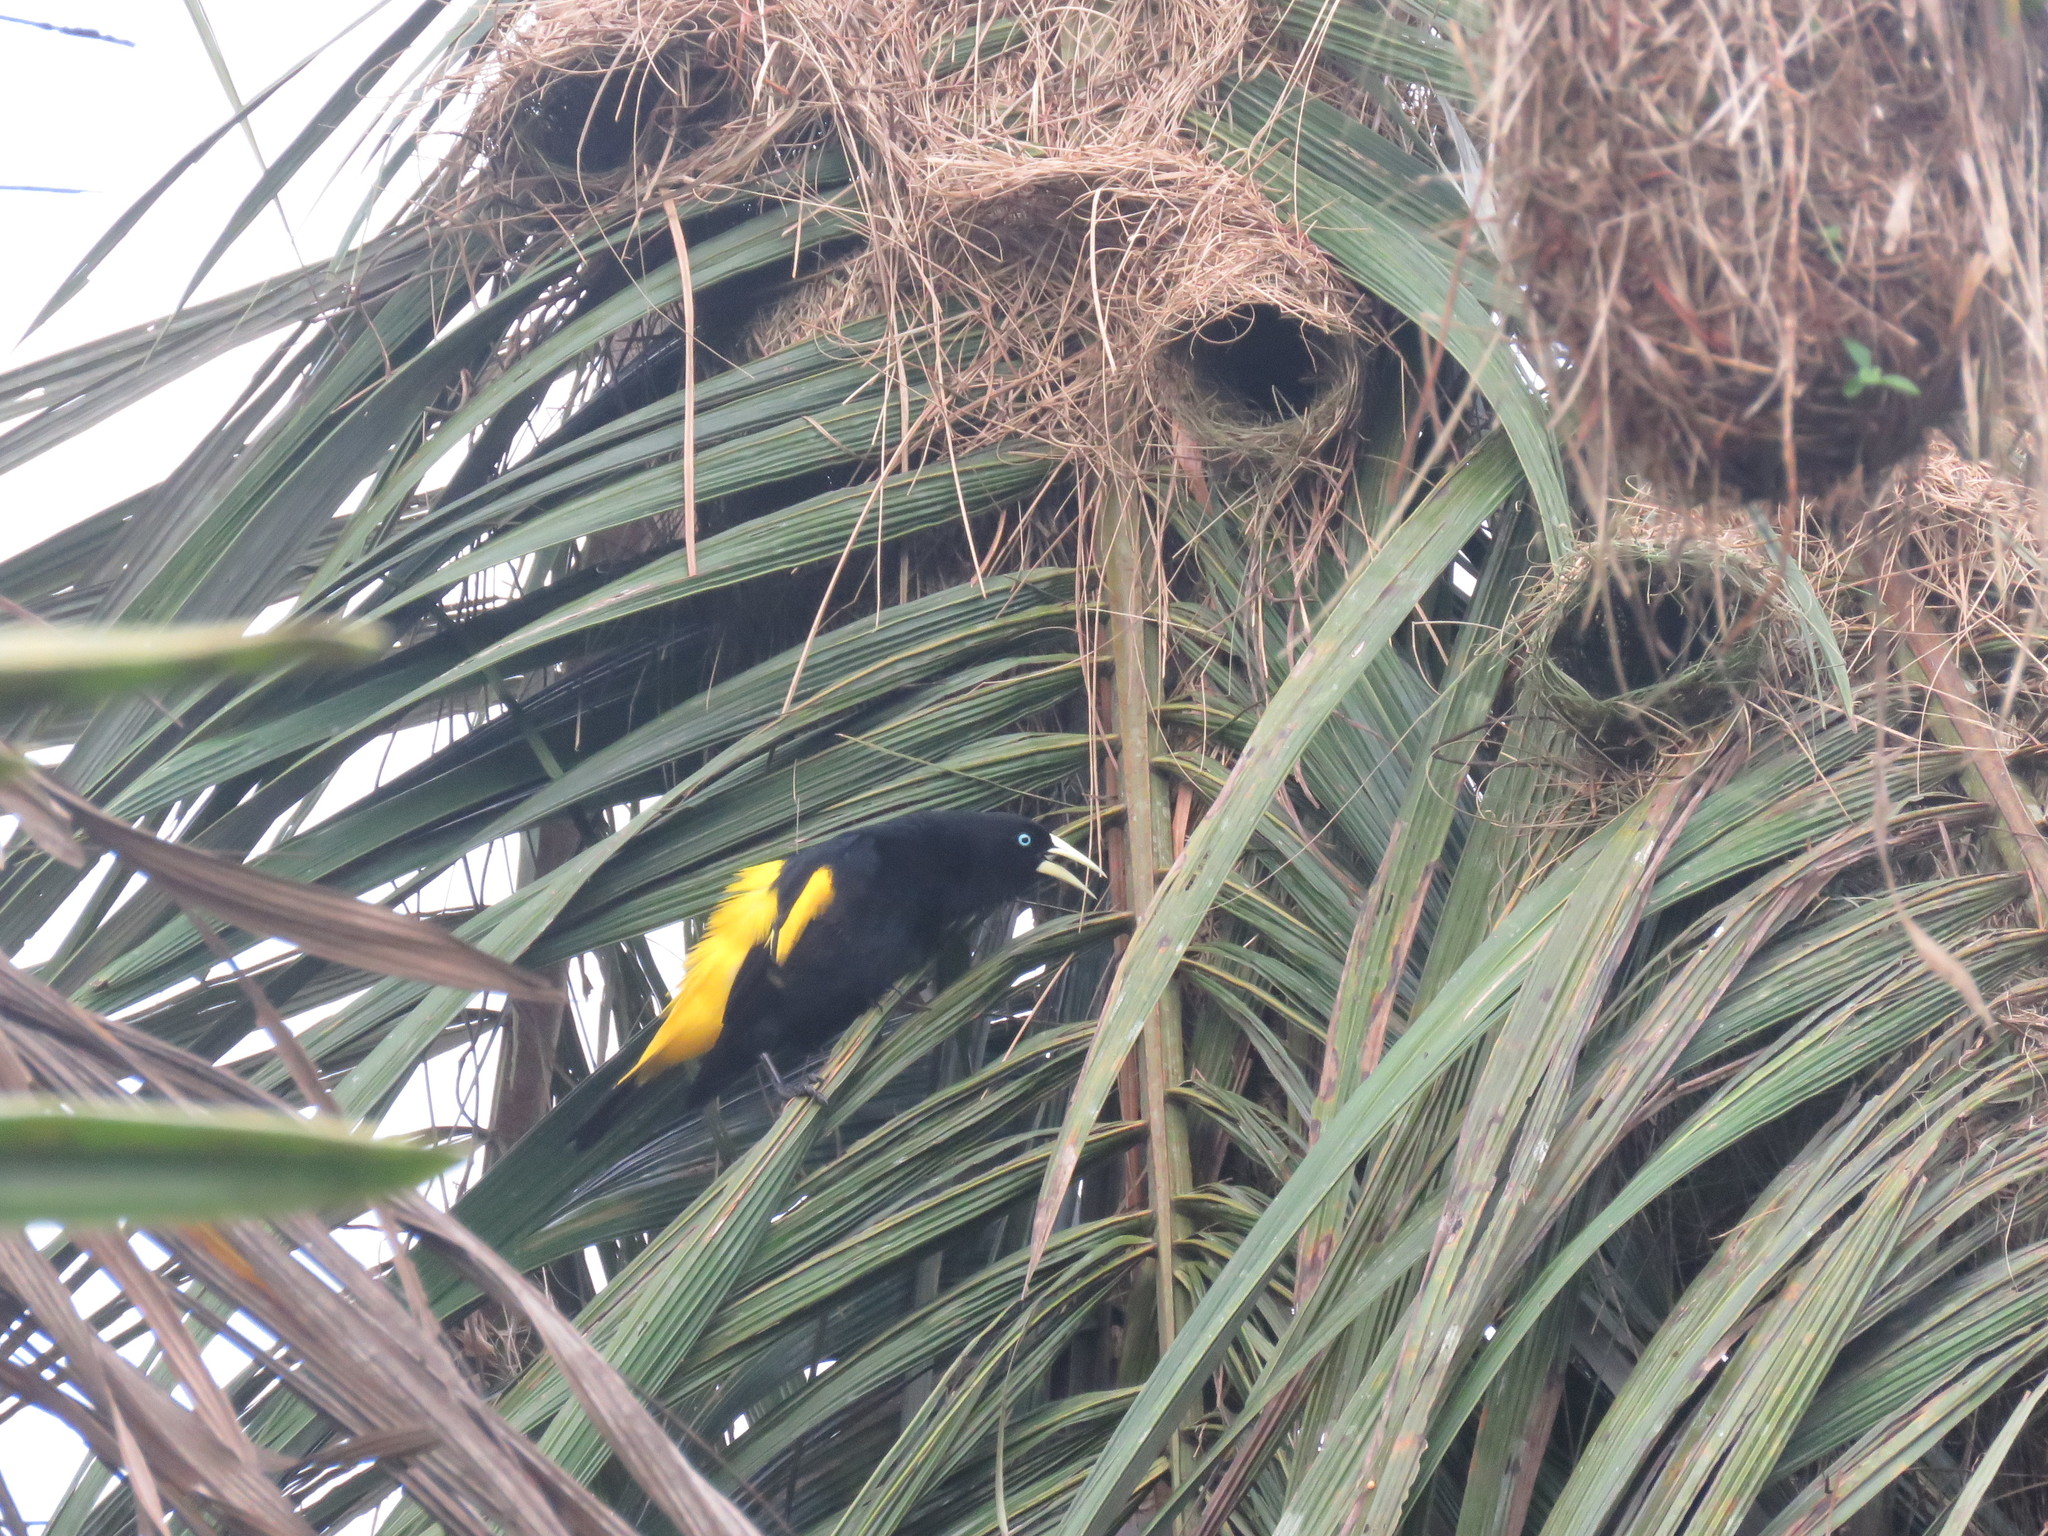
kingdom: Animalia
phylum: Chordata
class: Aves
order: Passeriformes
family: Icteridae
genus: Cacicus
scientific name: Cacicus cela
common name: Yellow-rumped cacique
